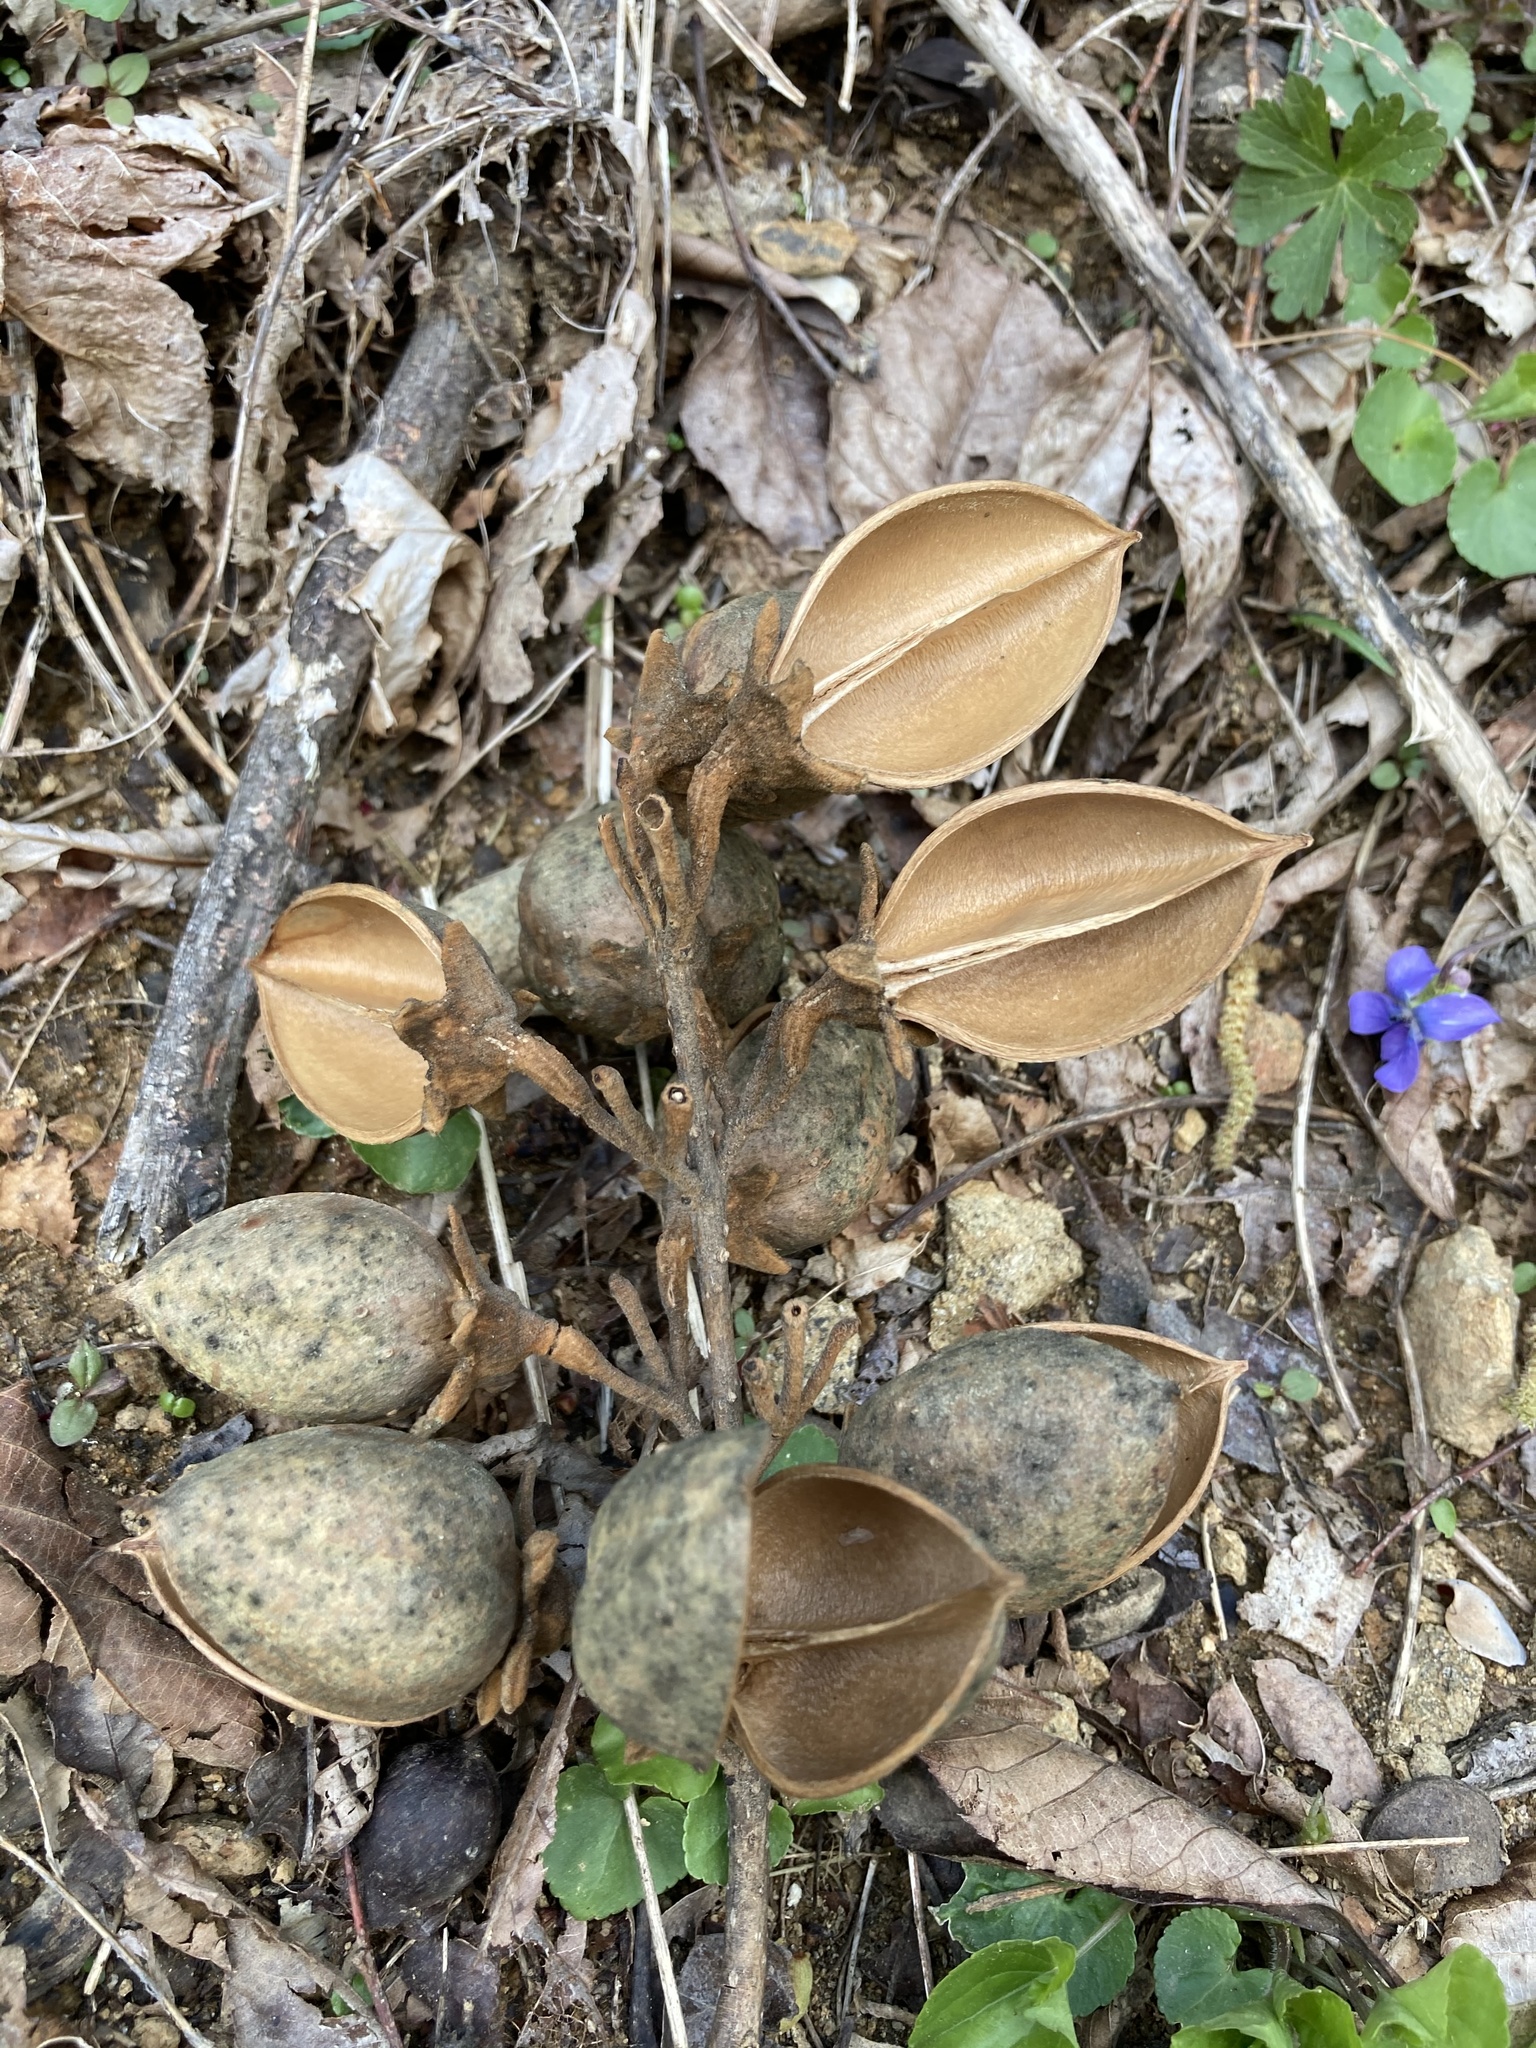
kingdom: Plantae
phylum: Tracheophyta
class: Magnoliopsida
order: Lamiales
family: Paulowniaceae
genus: Paulownia
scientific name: Paulownia tomentosa
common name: Foxglove-tree
